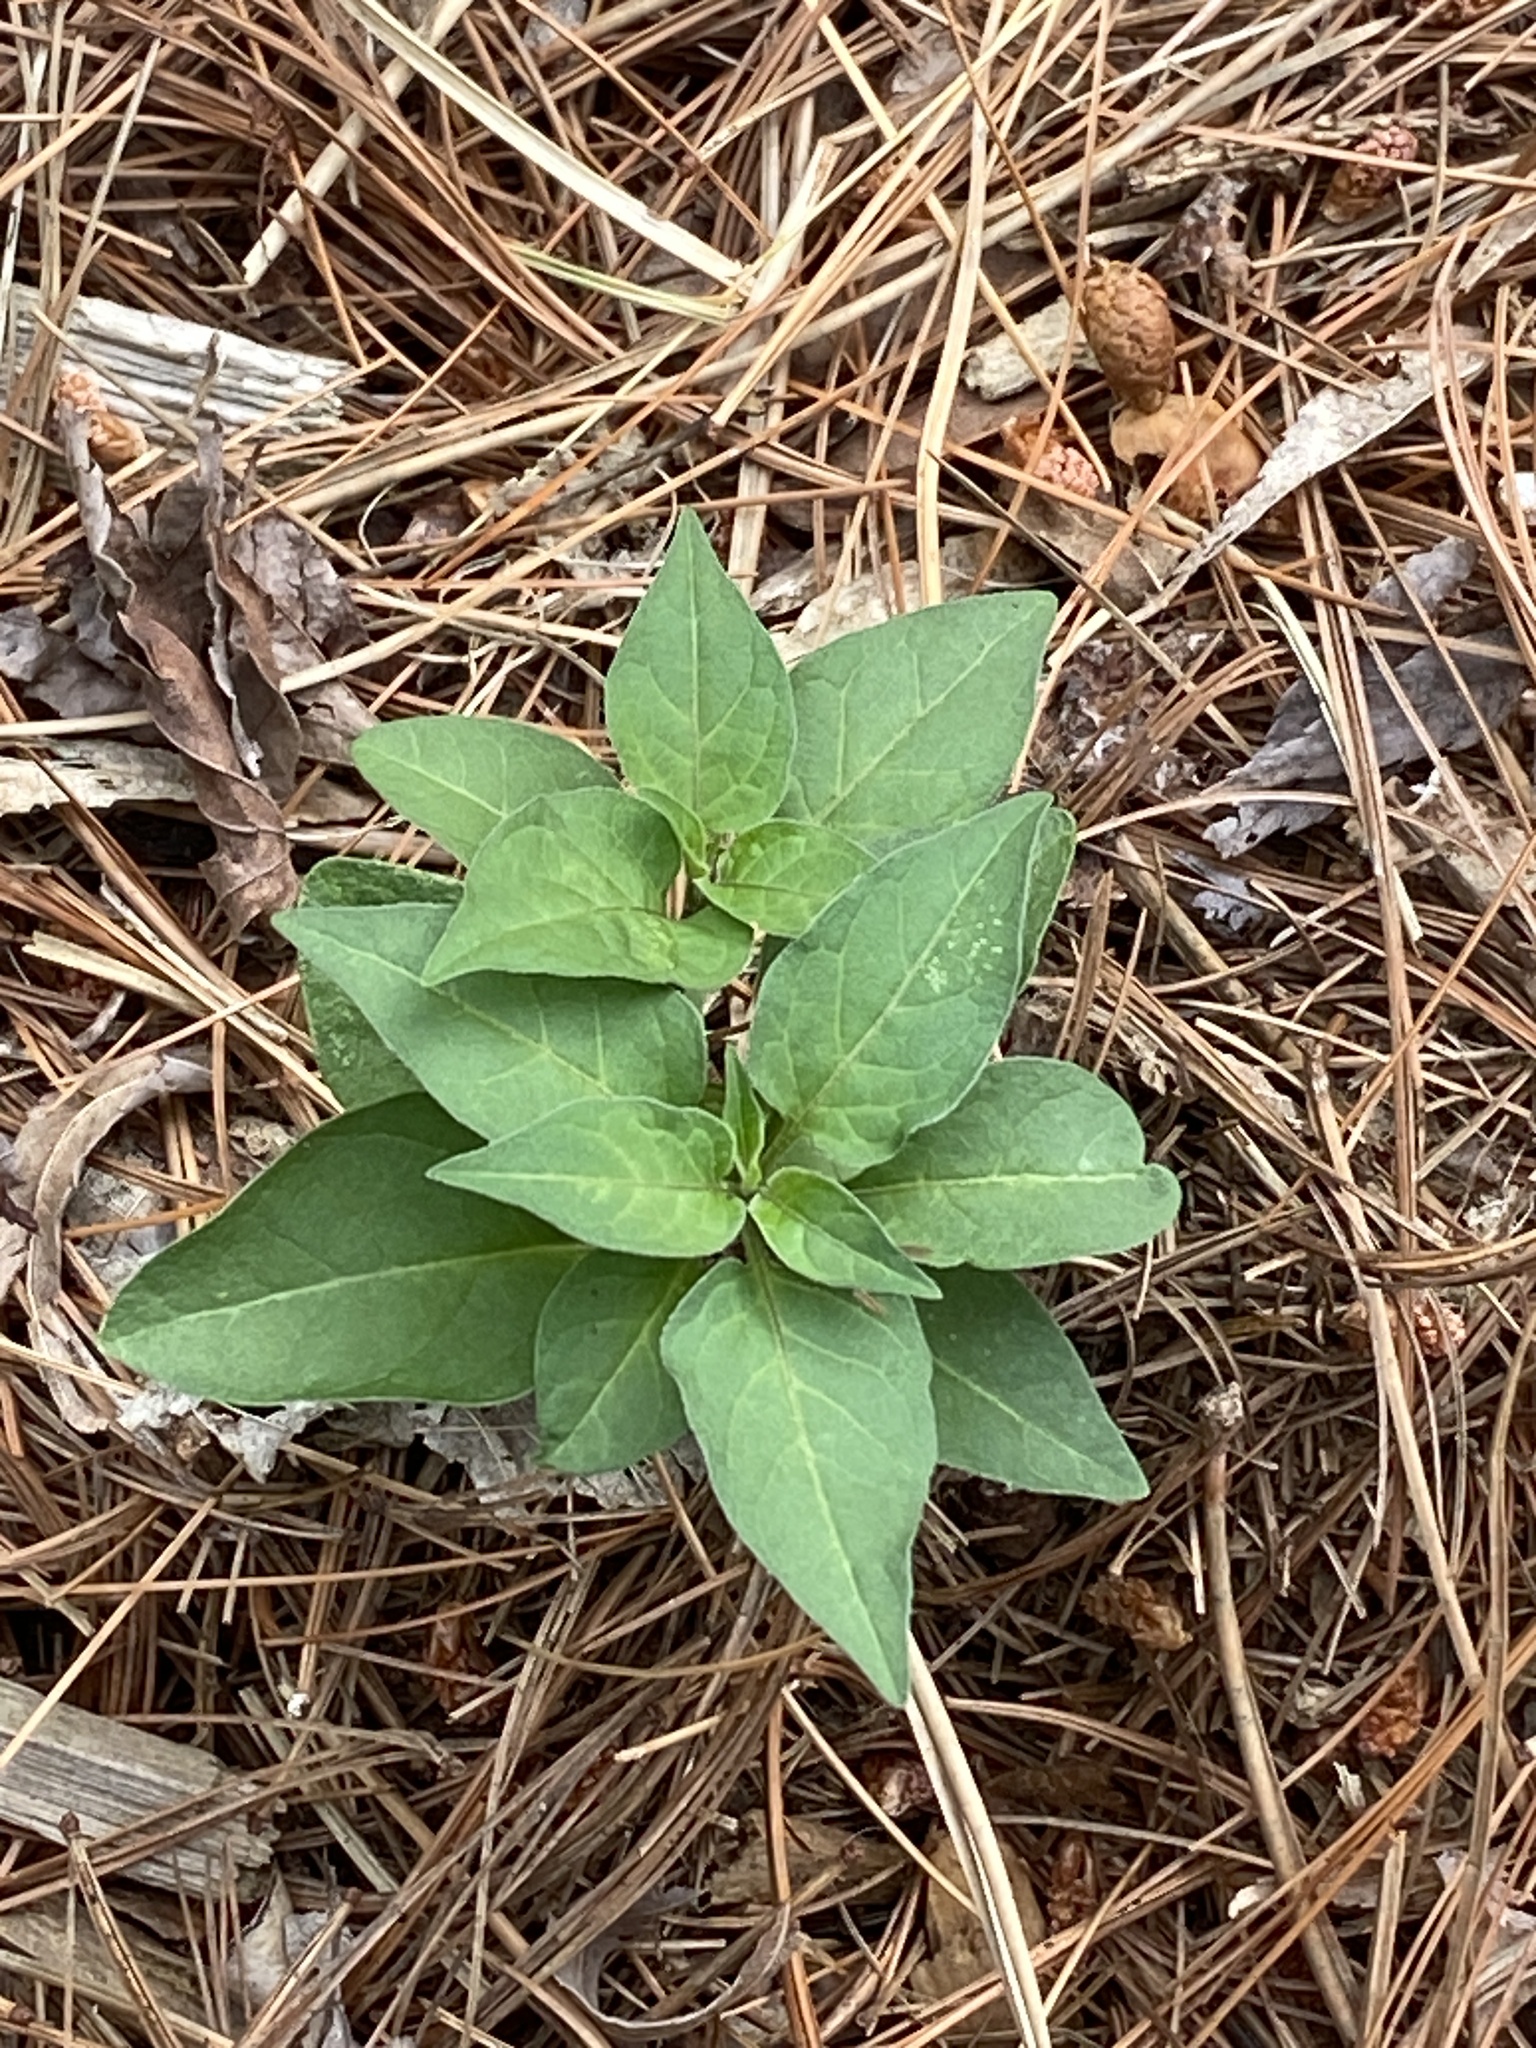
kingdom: Plantae
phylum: Tracheophyta
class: Magnoliopsida
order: Solanales
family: Solanaceae
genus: Solanum
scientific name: Solanum dulcamara
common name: Climbing nightshade
